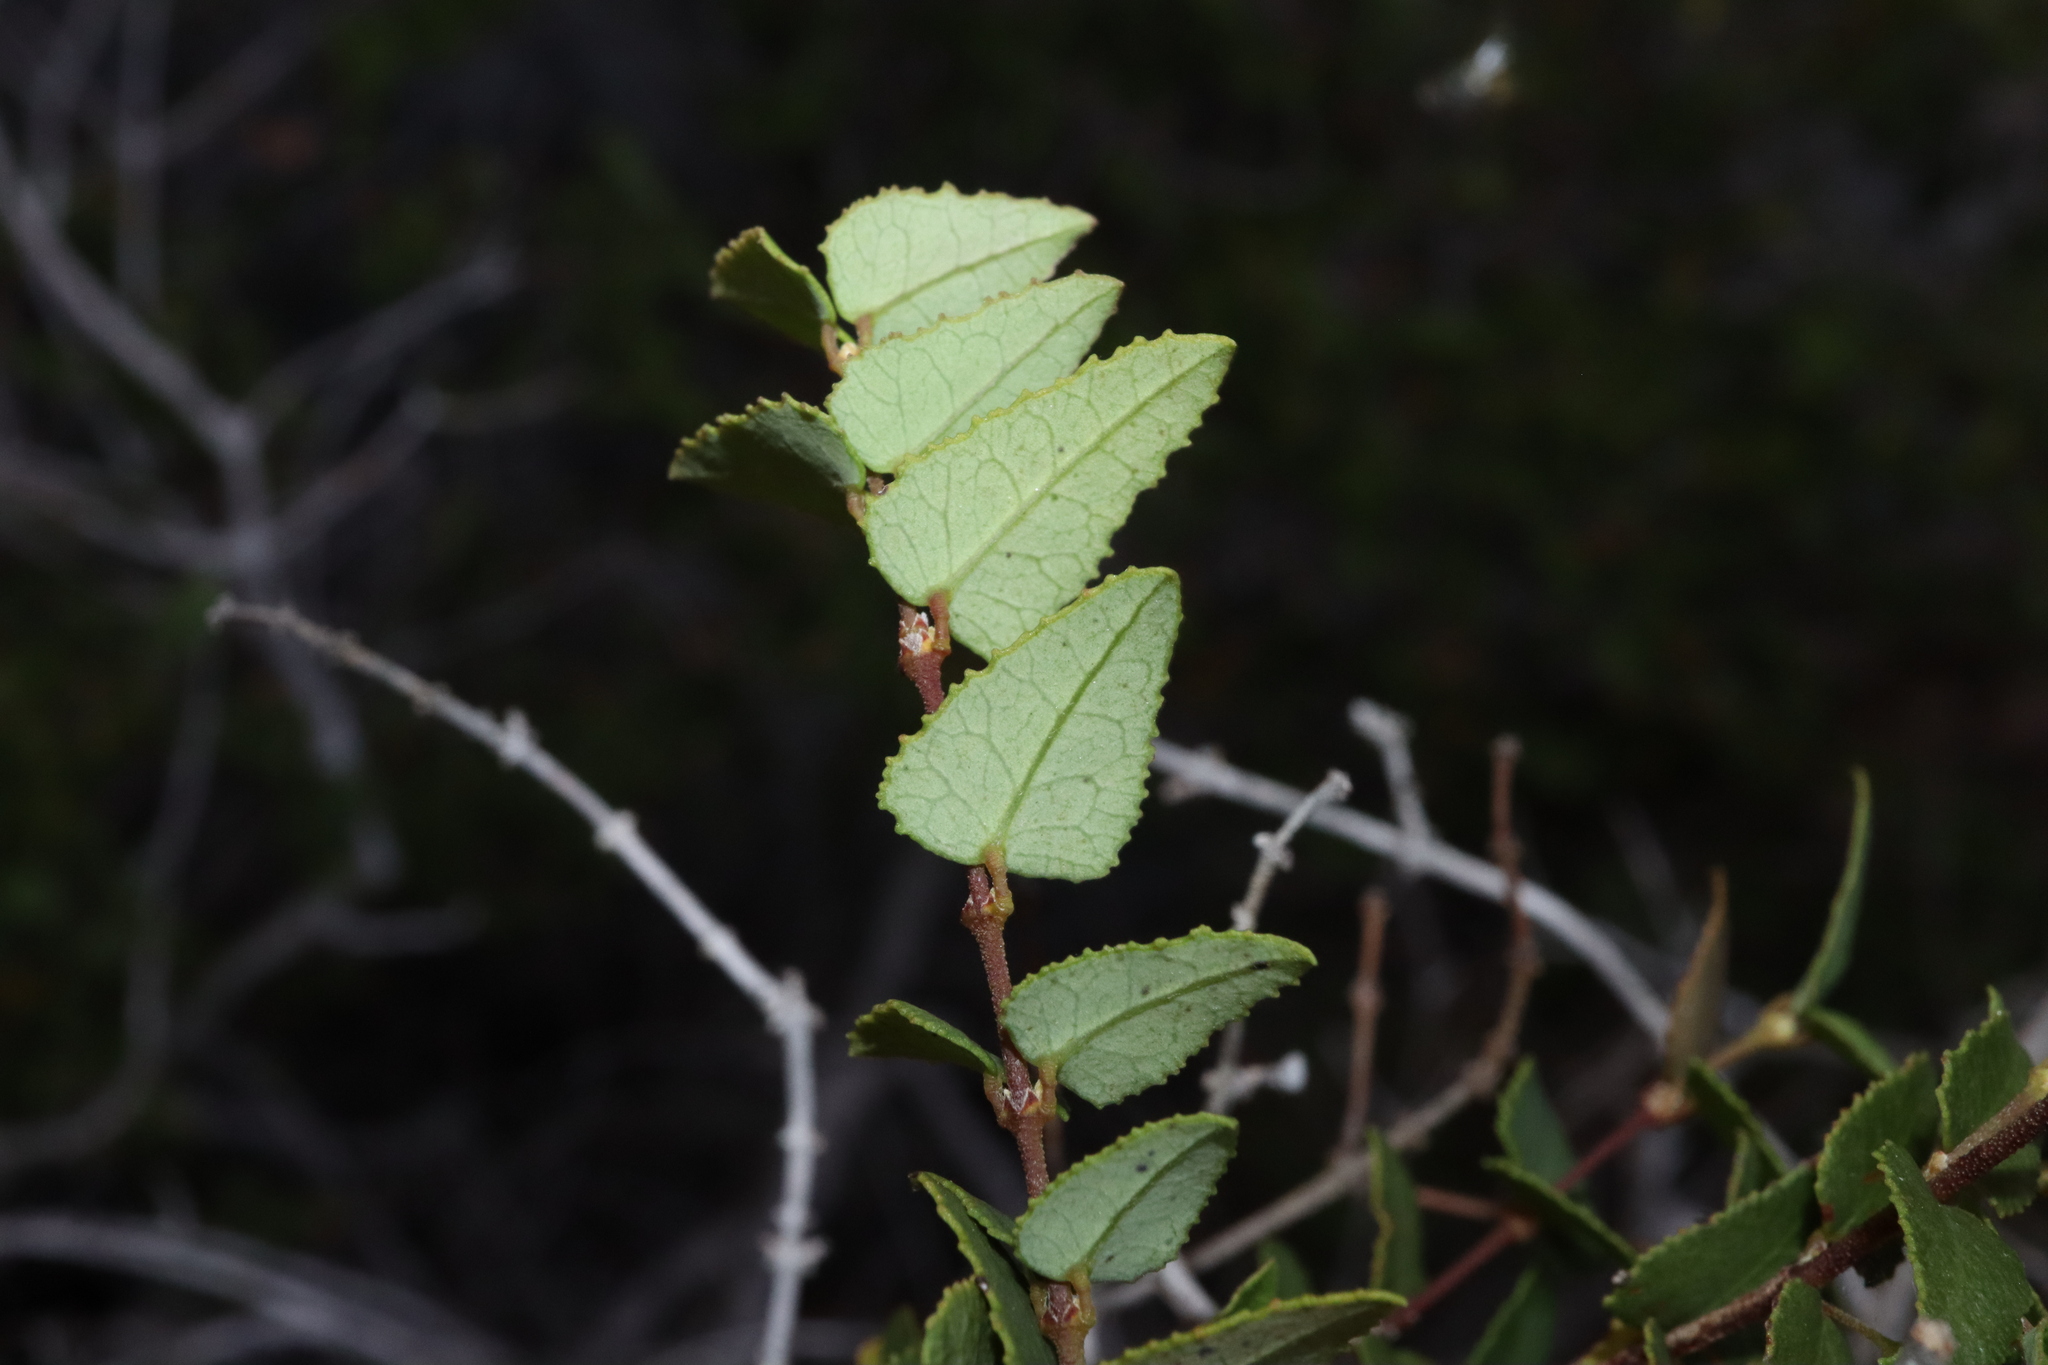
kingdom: Plantae
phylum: Tracheophyta
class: Magnoliopsida
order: Fabales
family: Fabaceae
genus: Bossiaea
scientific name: Bossiaea dentata
